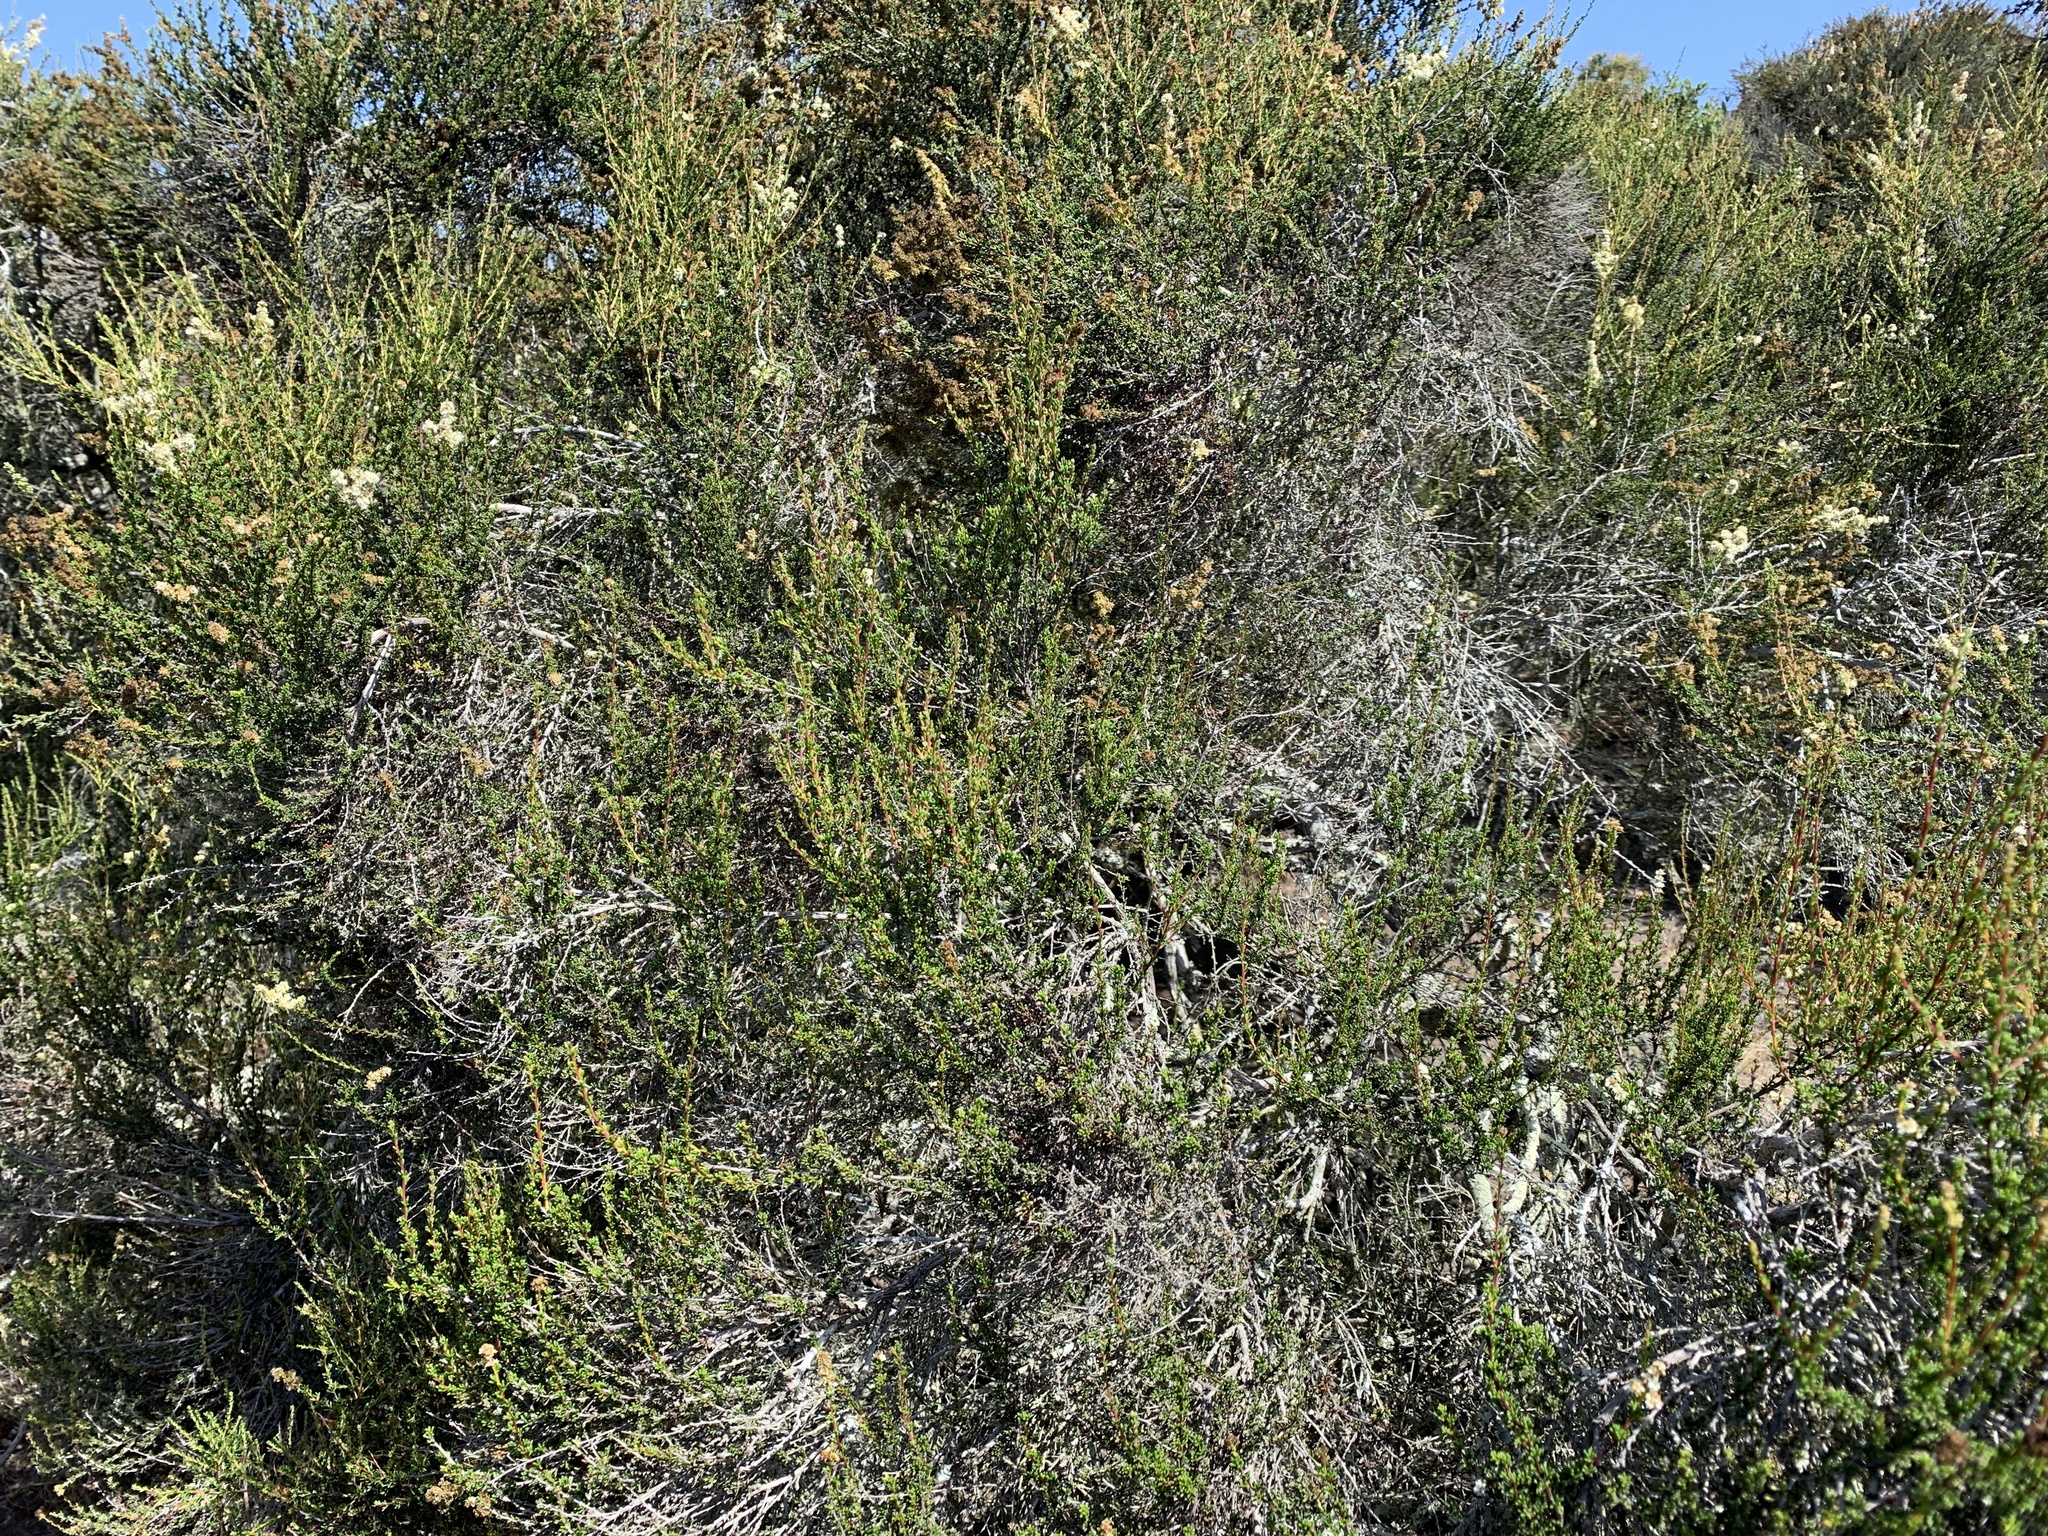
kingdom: Plantae
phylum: Tracheophyta
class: Magnoliopsida
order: Rosales
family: Rosaceae
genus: Adenostoma
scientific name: Adenostoma fasciculatum
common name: Chamise
